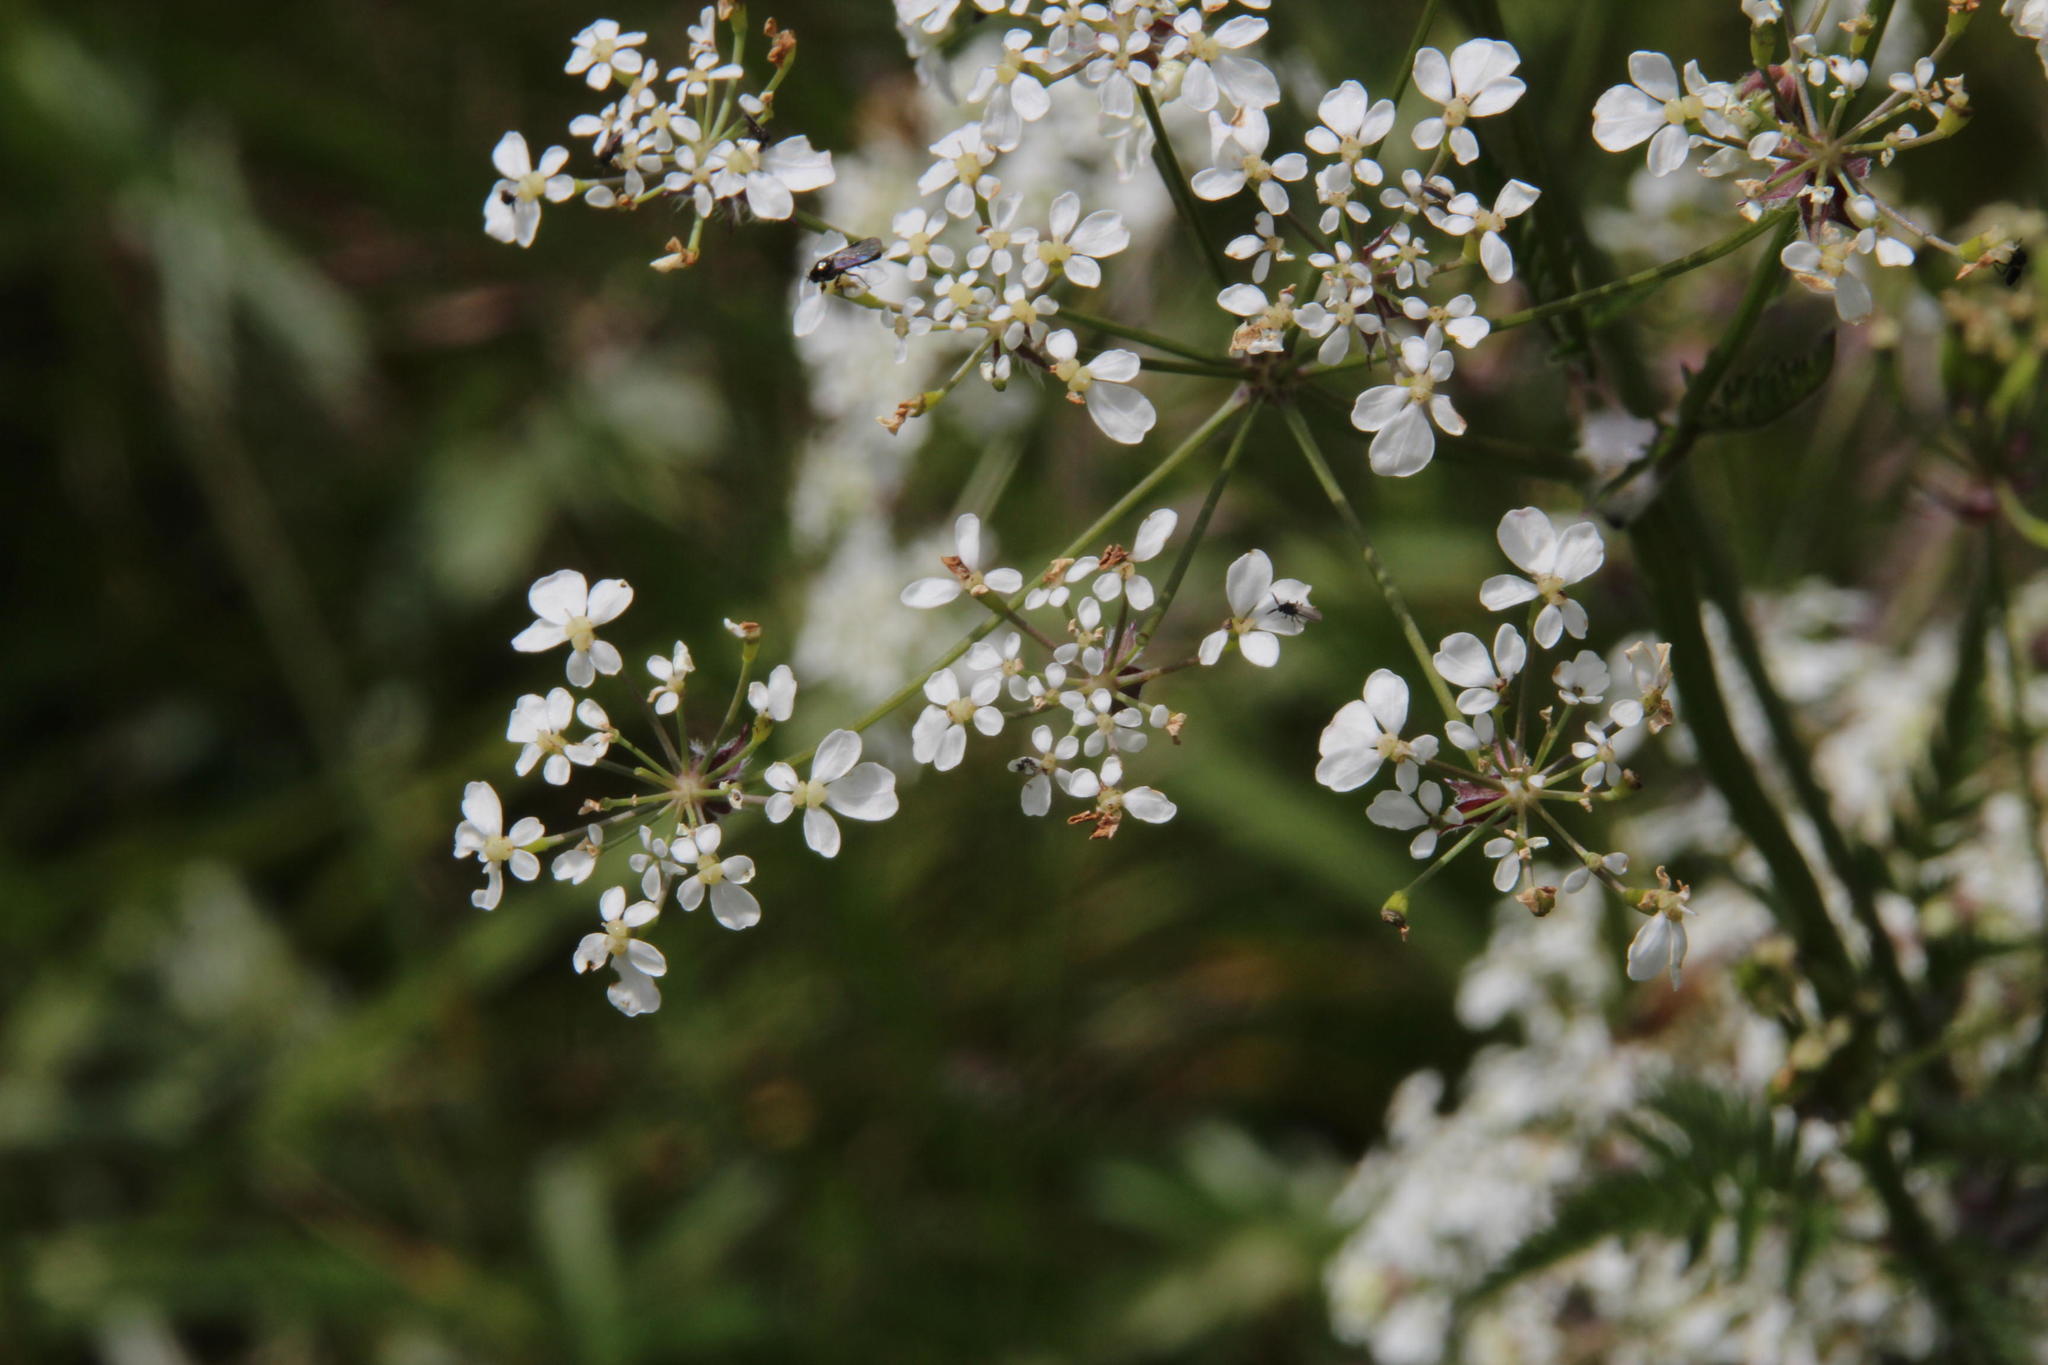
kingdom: Plantae
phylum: Tracheophyta
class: Magnoliopsida
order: Apiales
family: Apiaceae
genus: Anthriscus
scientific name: Anthriscus sylvestris
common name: Cow parsley
